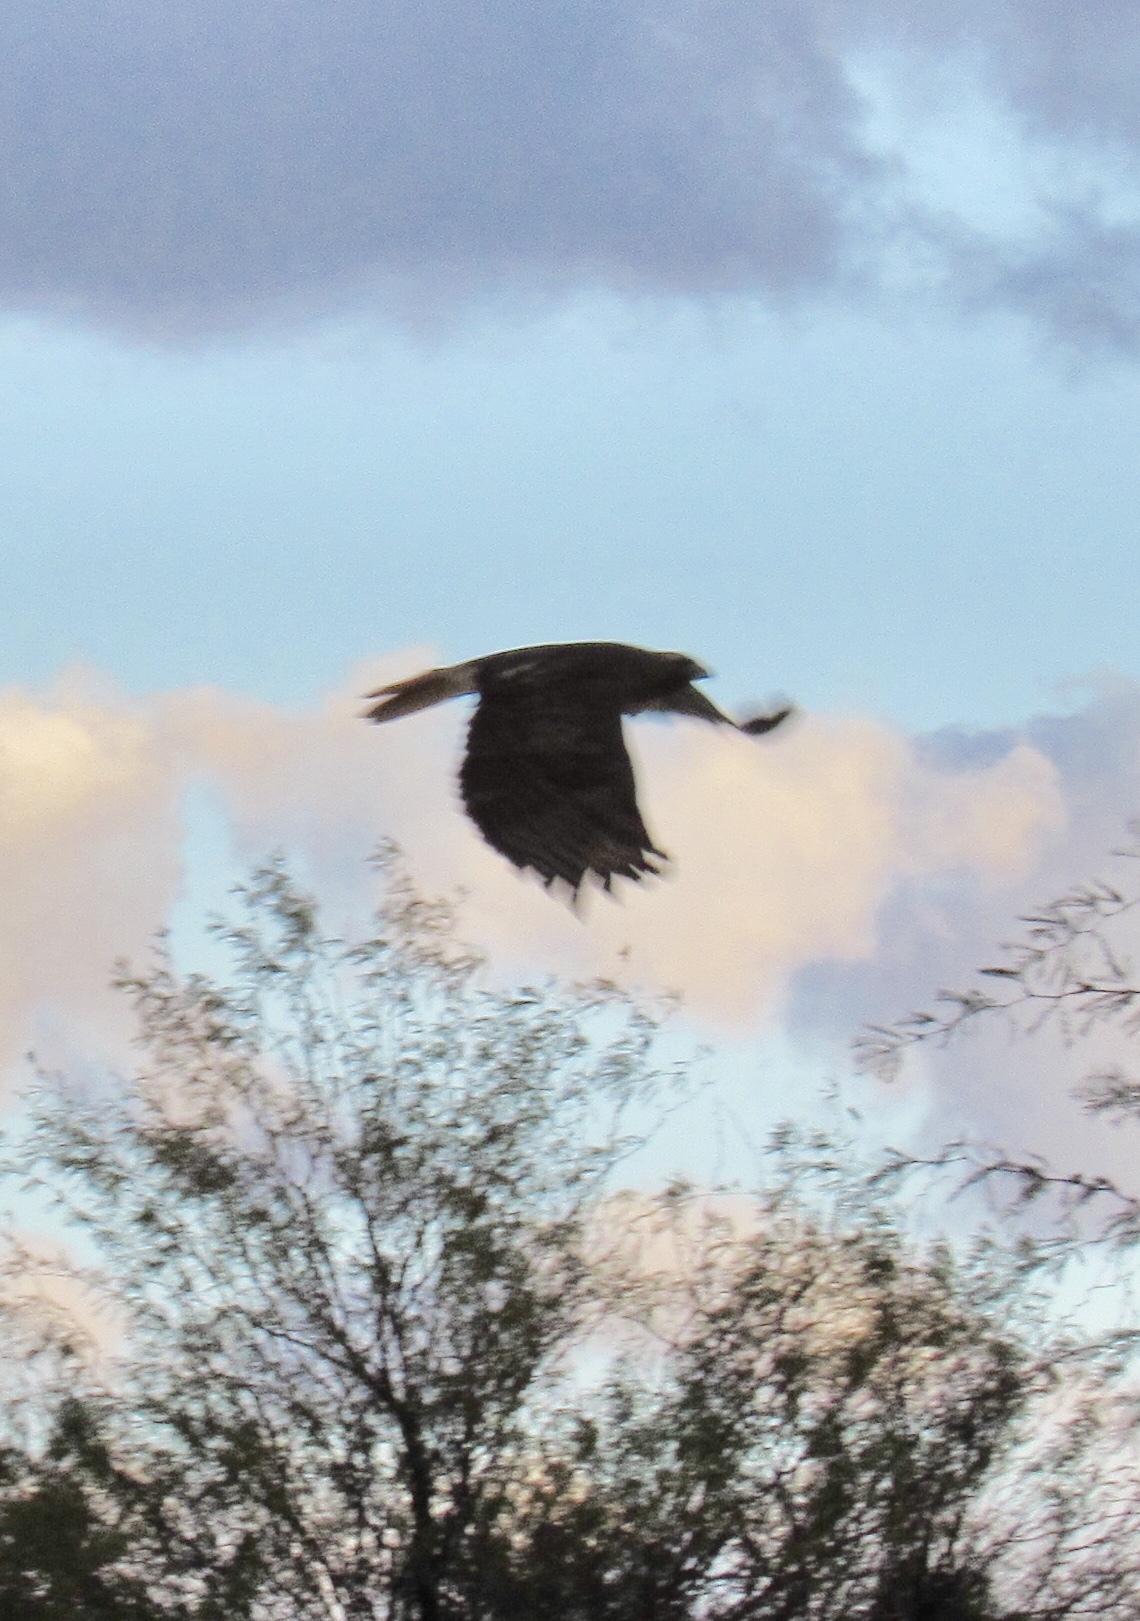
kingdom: Animalia
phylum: Chordata
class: Aves
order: Accipitriformes
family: Accipitridae
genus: Buteo
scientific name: Buteo jamaicensis
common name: Red-tailed hawk
